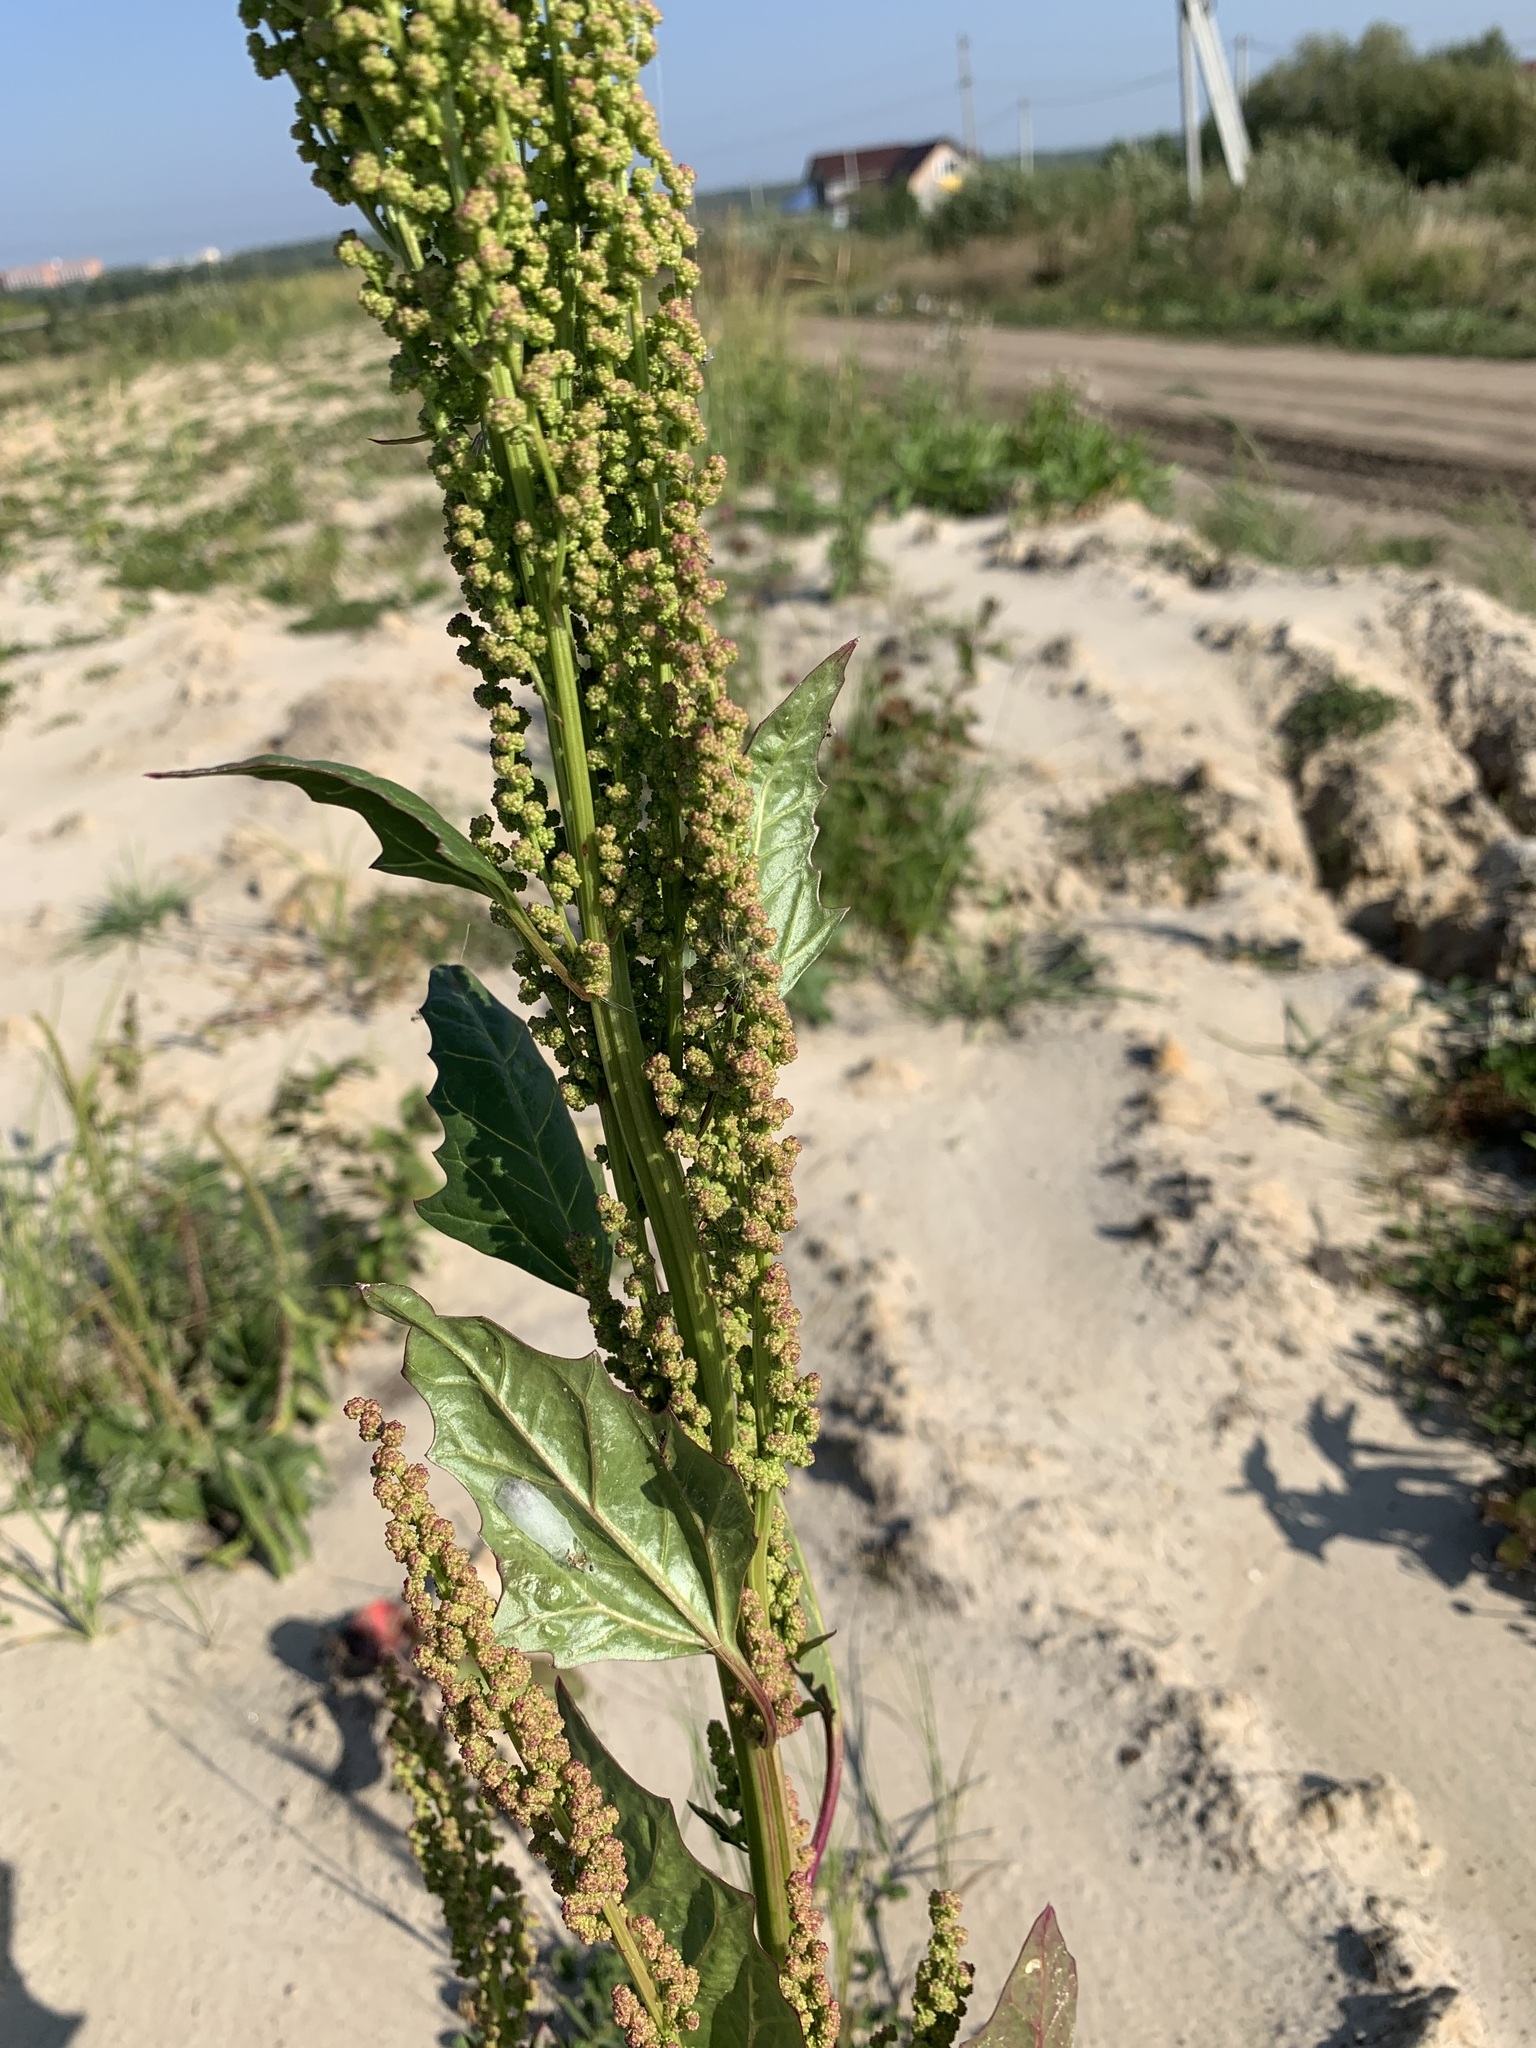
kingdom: Plantae
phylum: Tracheophyta
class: Magnoliopsida
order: Caryophyllales
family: Amaranthaceae
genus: Oxybasis
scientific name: Oxybasis rubra
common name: Red goosefoot
